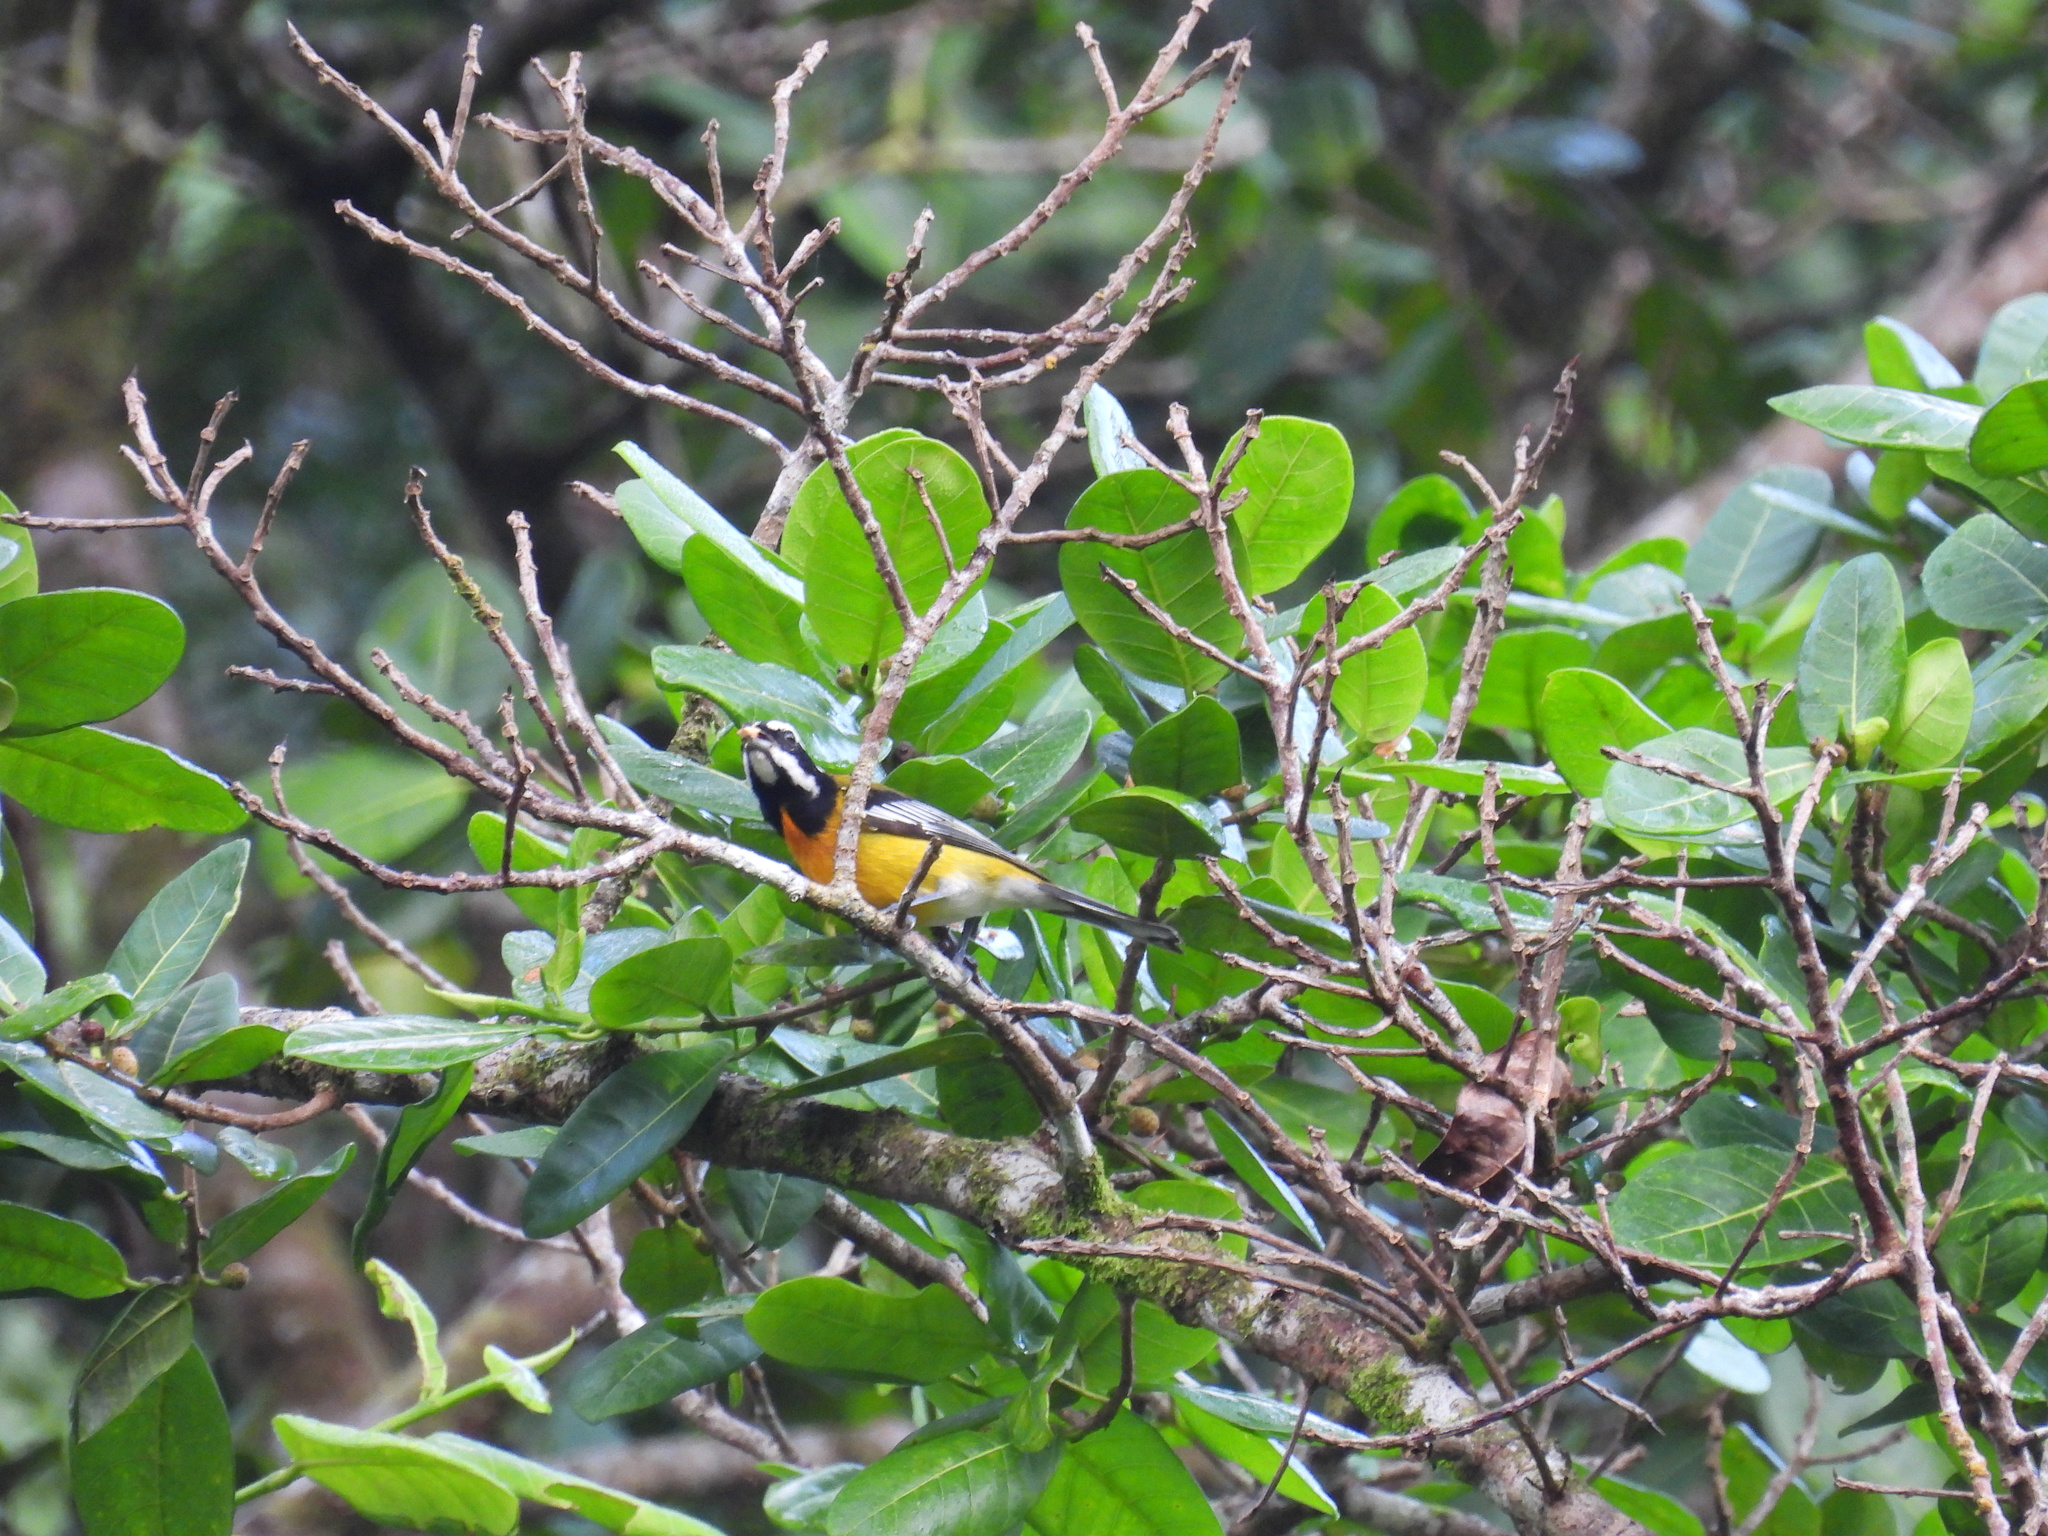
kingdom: Animalia
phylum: Chordata
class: Aves
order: Passeriformes
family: Spindalidae
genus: Spindalis
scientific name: Spindalis nigricephala
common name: Jamaican spindalis
